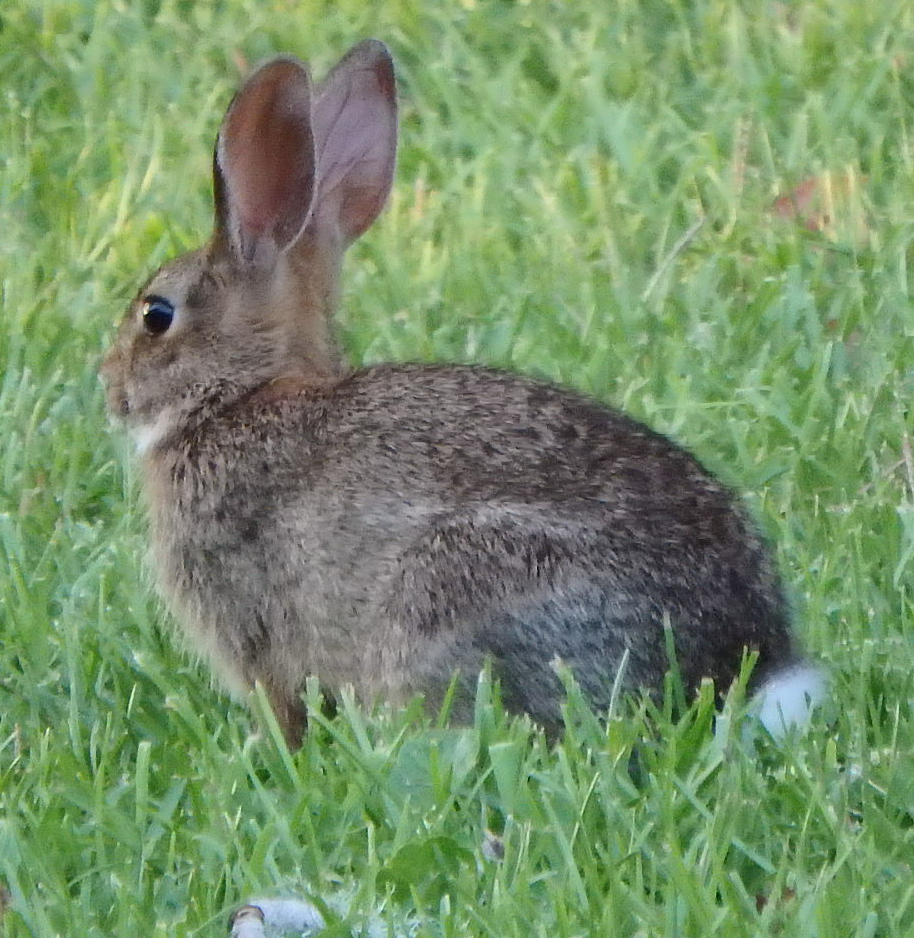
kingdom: Animalia
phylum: Chordata
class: Mammalia
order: Lagomorpha
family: Leporidae
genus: Sylvilagus
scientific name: Sylvilagus floridanus
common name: Eastern cottontail
